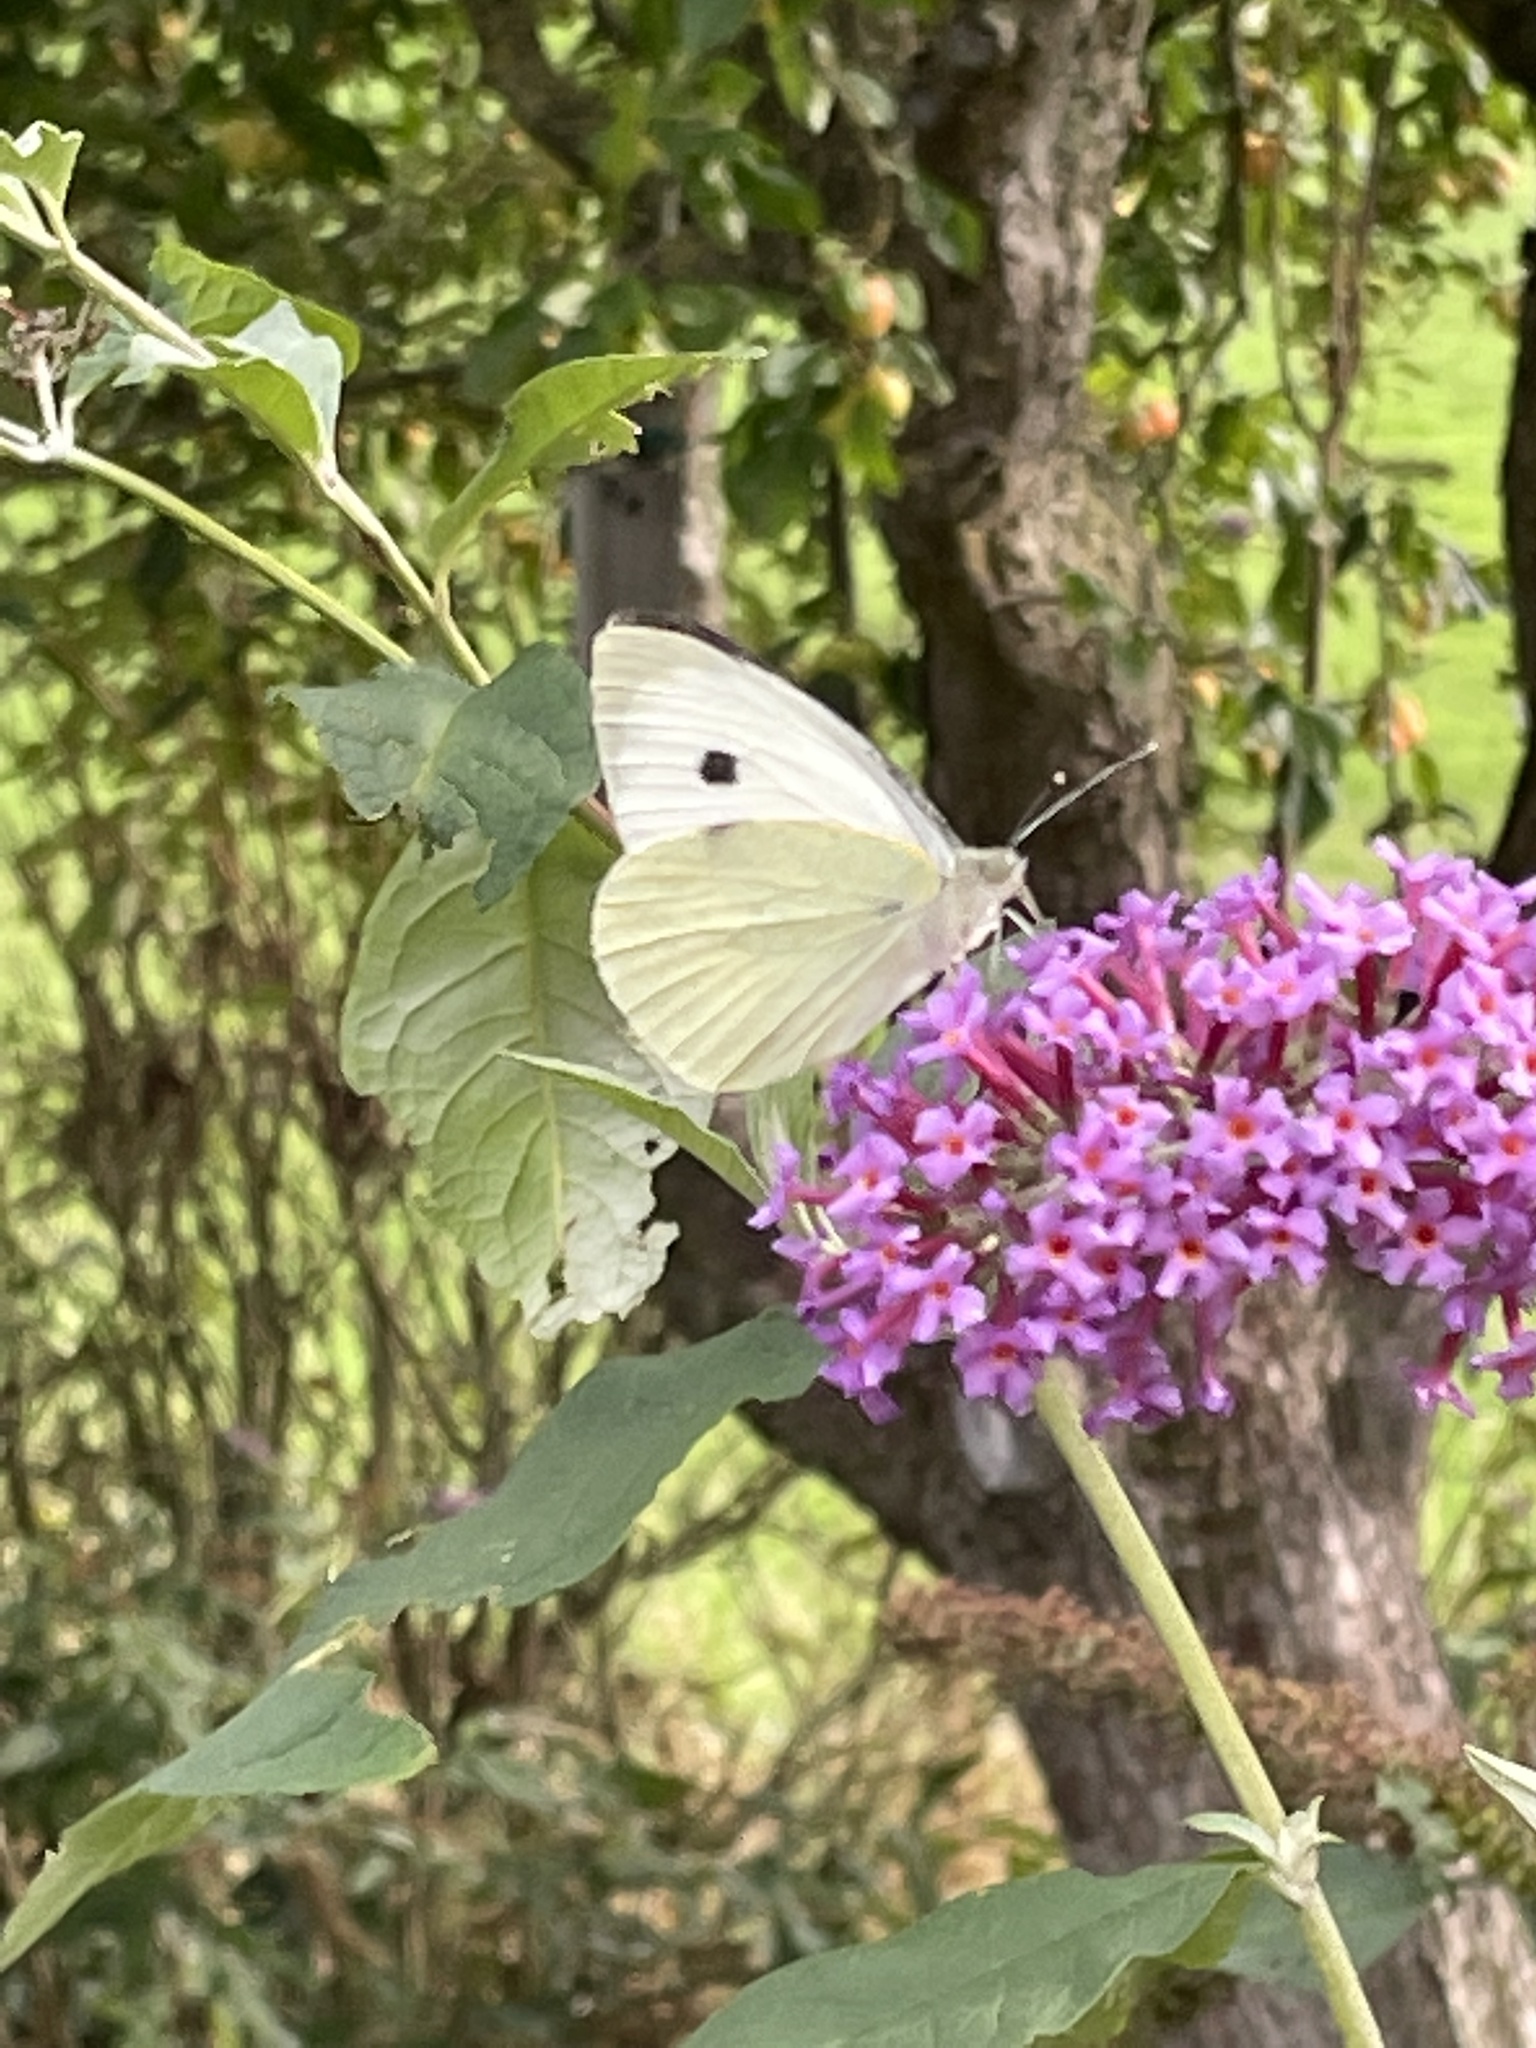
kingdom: Animalia
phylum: Arthropoda
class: Insecta
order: Lepidoptera
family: Pieridae
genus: Pieris
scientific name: Pieris brassicae
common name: Large white
